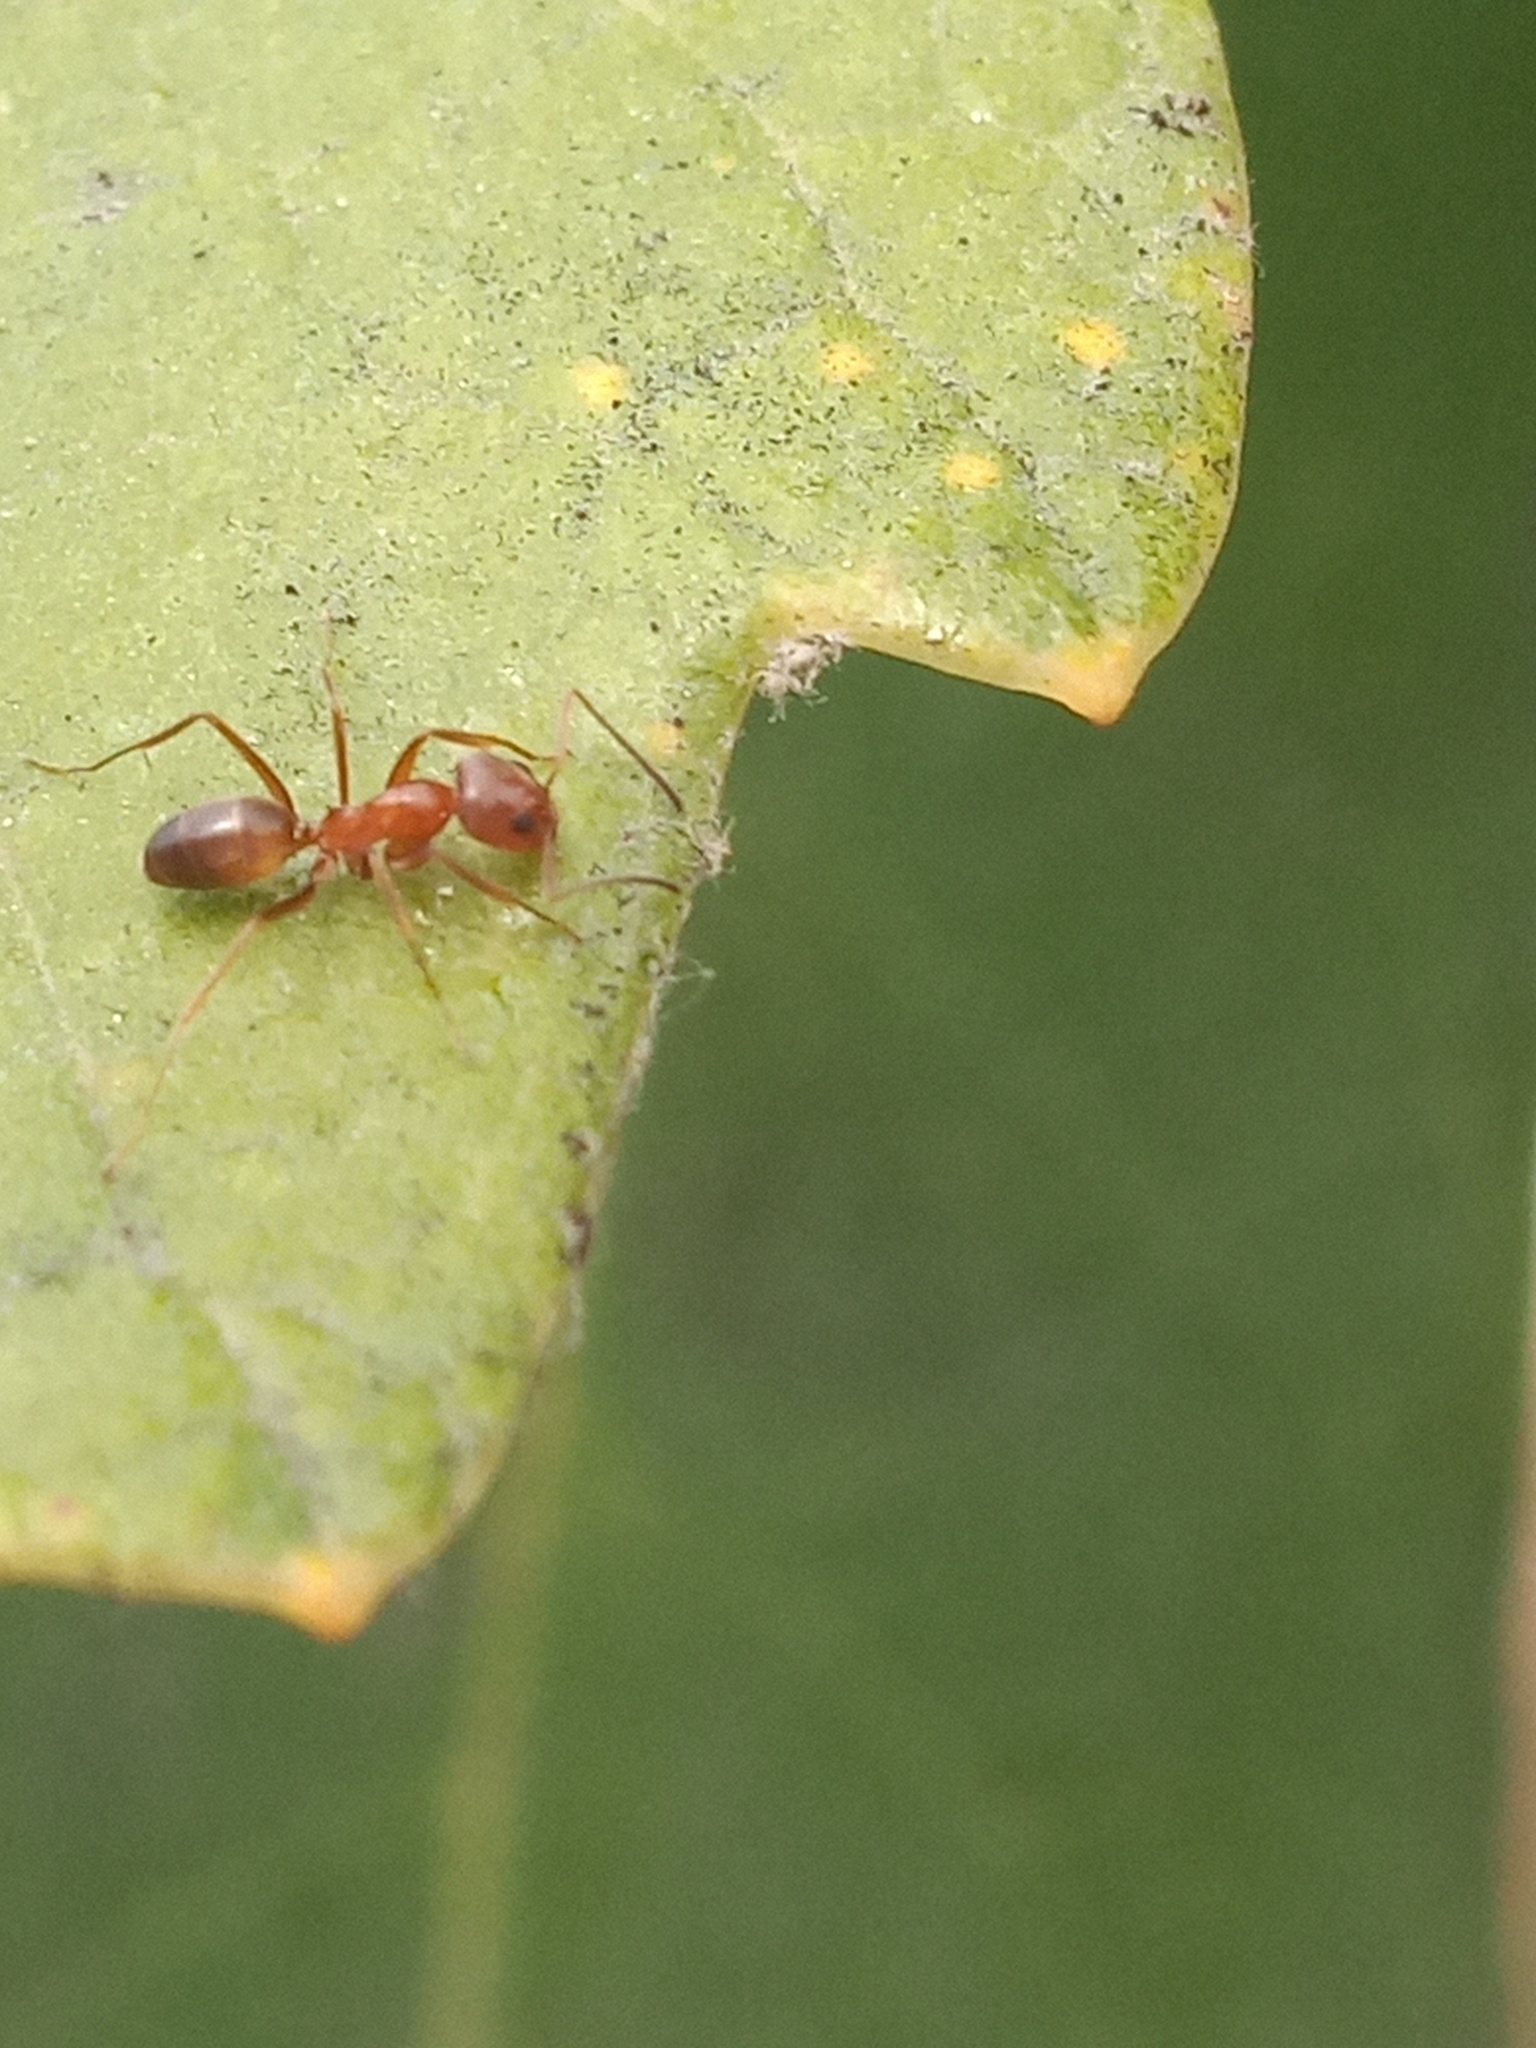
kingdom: Animalia
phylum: Arthropoda
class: Insecta
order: Hymenoptera
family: Formicidae
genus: Dorymyrmex
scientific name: Dorymyrmex insanus
